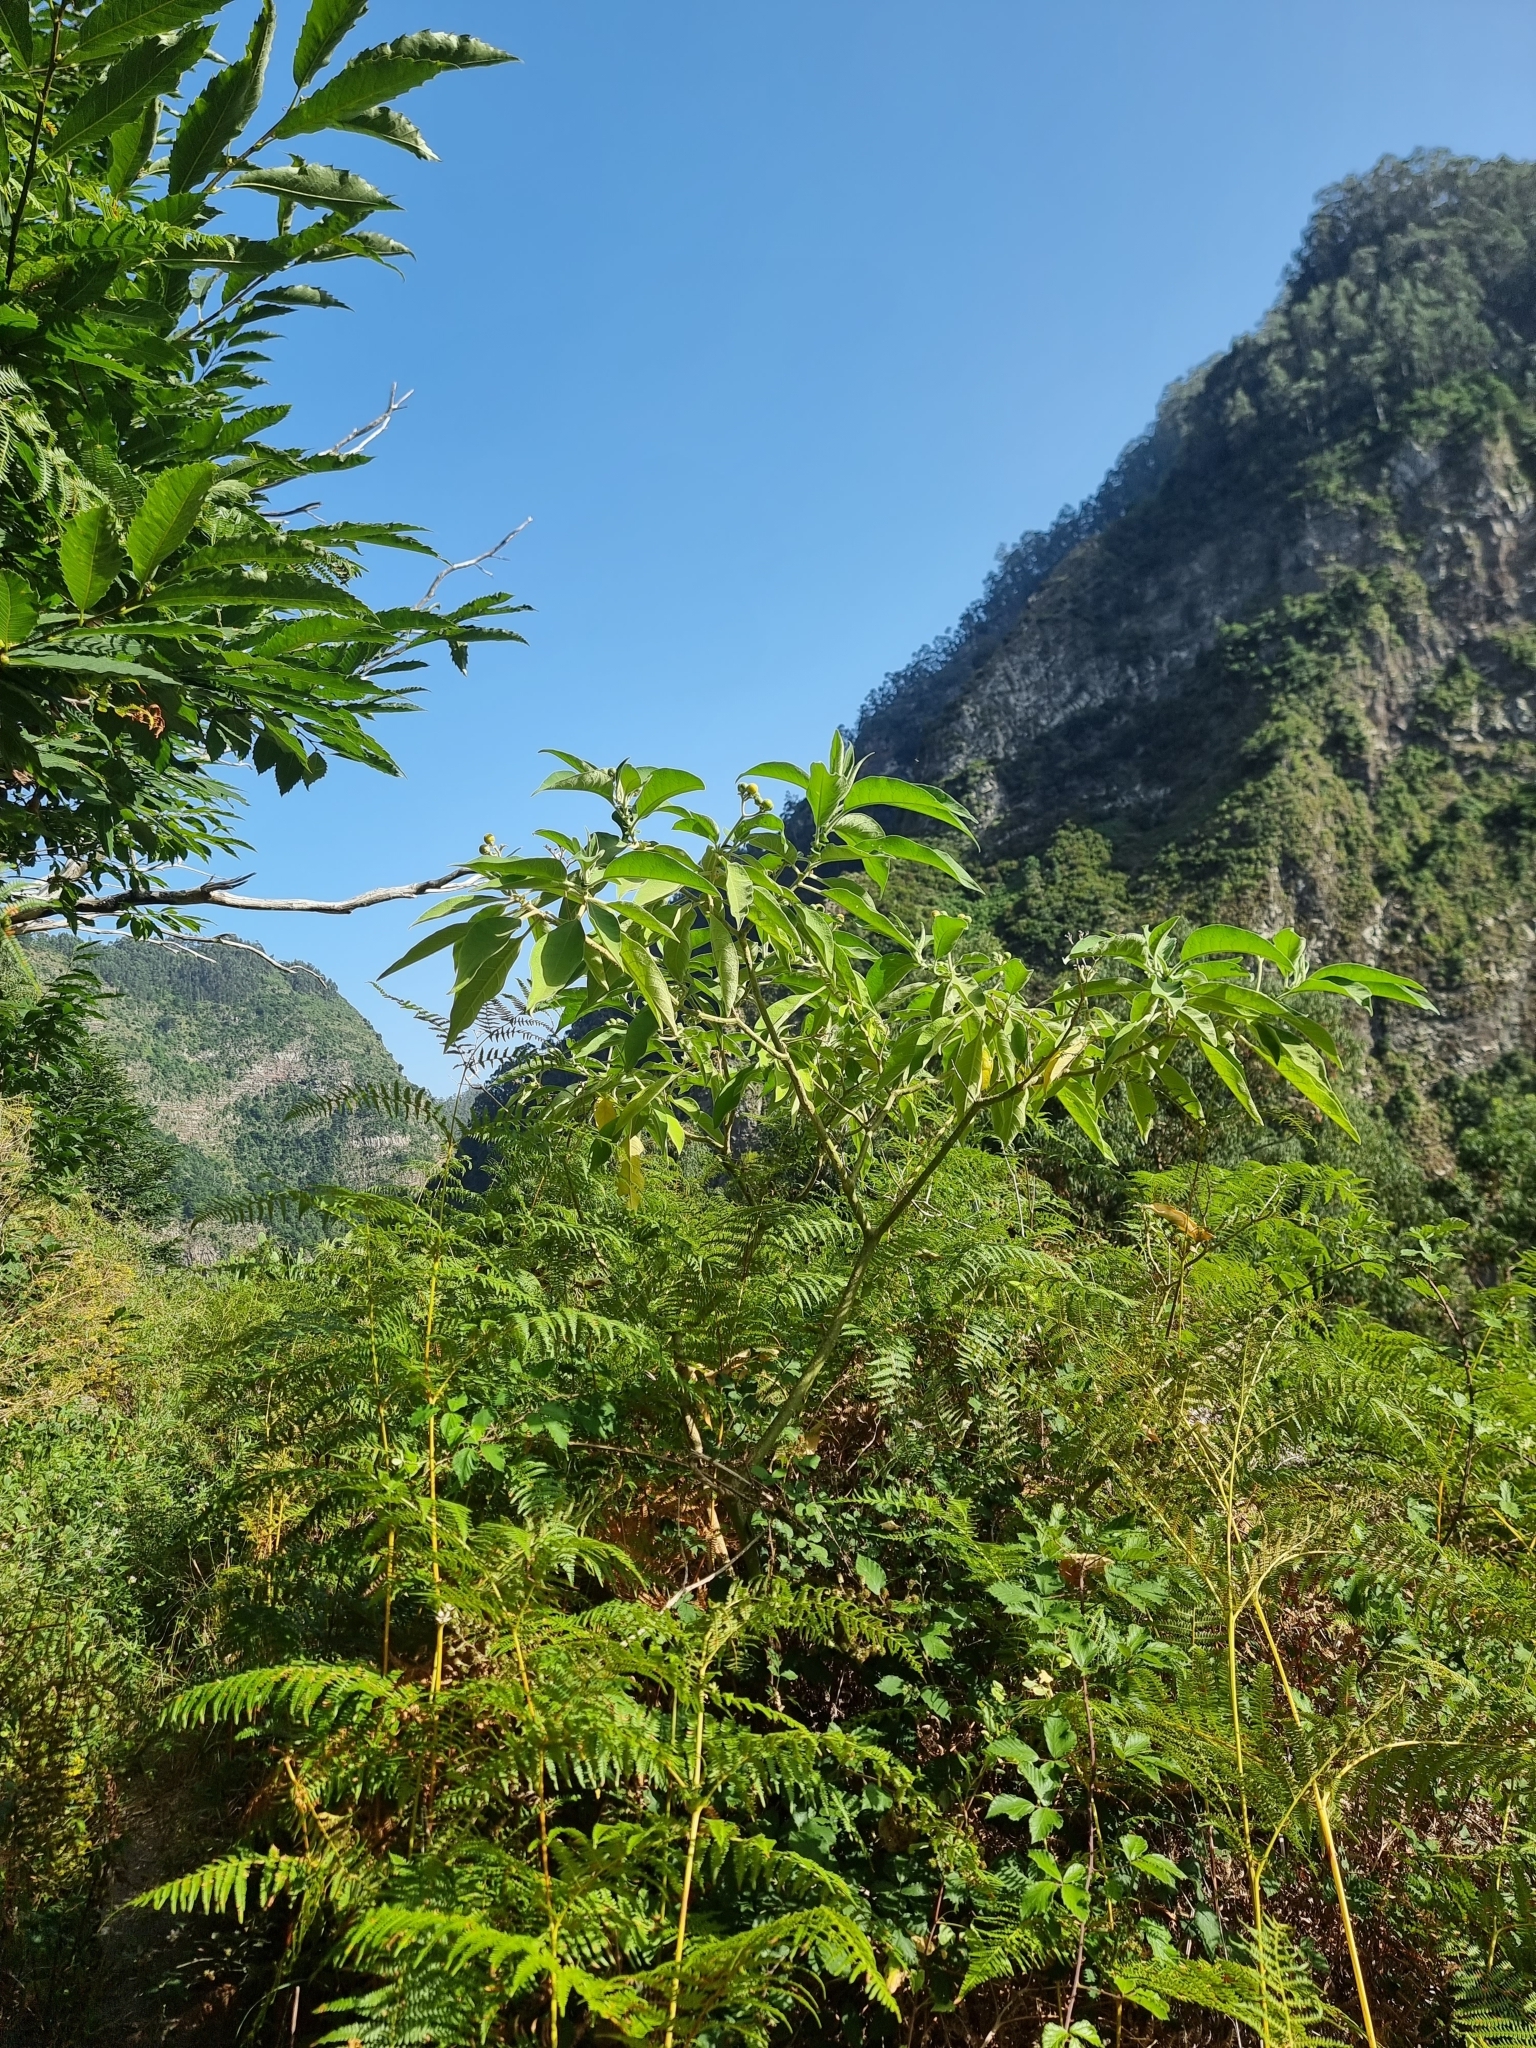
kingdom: Plantae
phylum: Tracheophyta
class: Magnoliopsida
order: Solanales
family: Solanaceae
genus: Solanum
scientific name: Solanum mauritianum
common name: Earleaf nightshade
